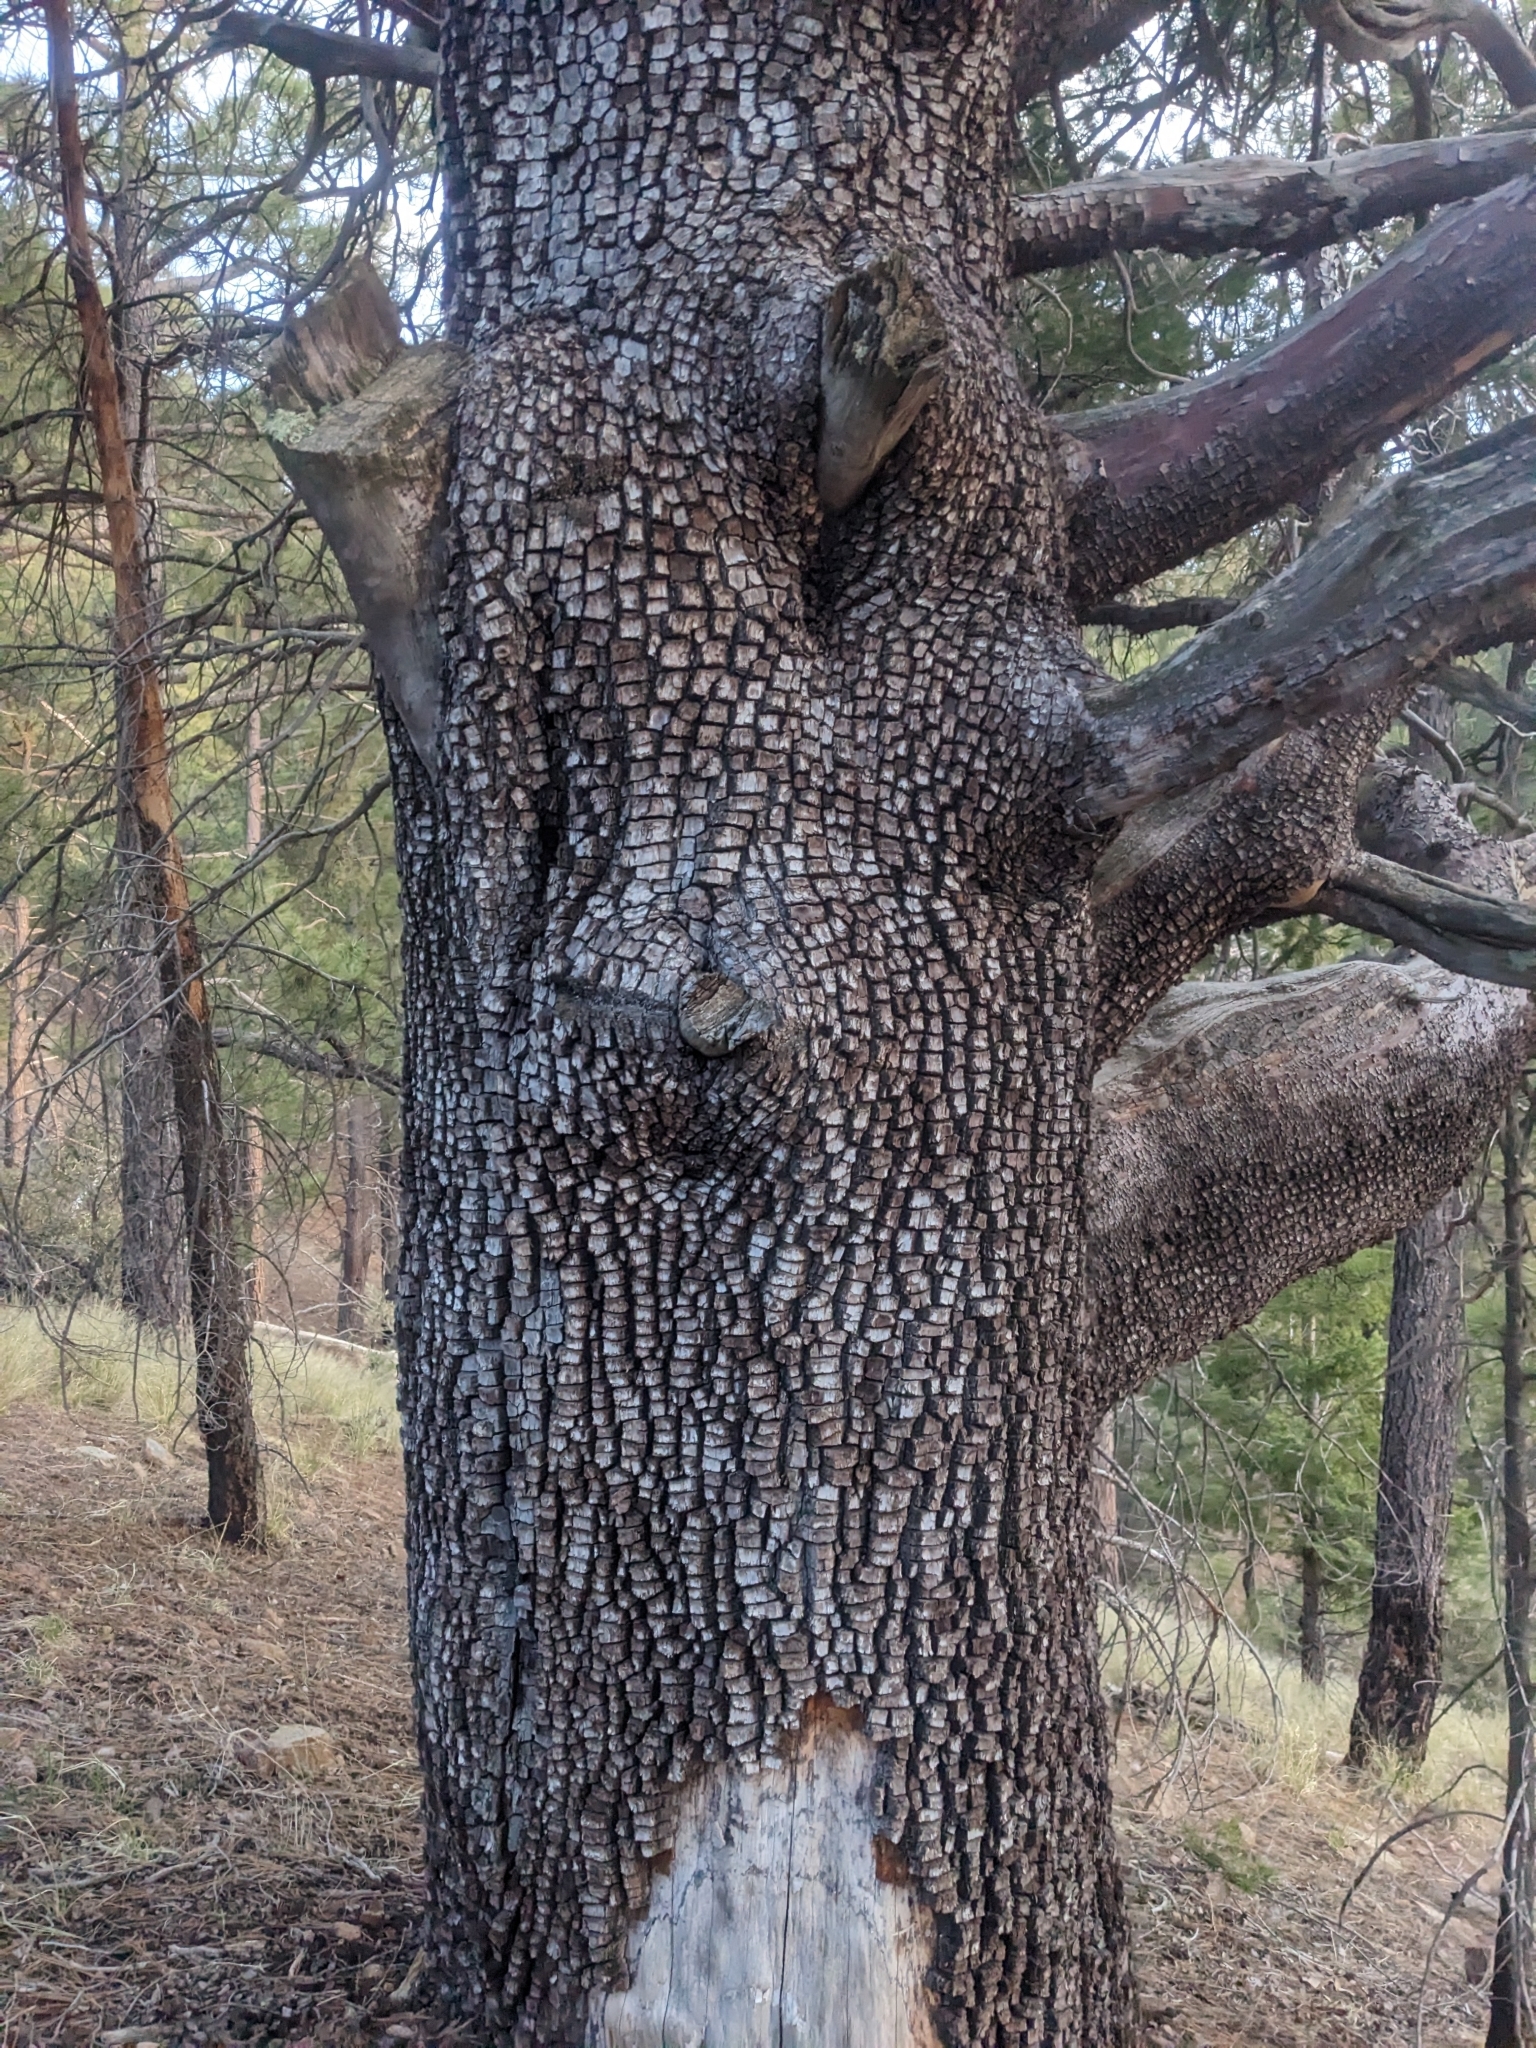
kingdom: Plantae
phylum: Tracheophyta
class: Pinopsida
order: Pinales
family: Cupressaceae
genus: Juniperus
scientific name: Juniperus deppeana
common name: Alligator juniper
